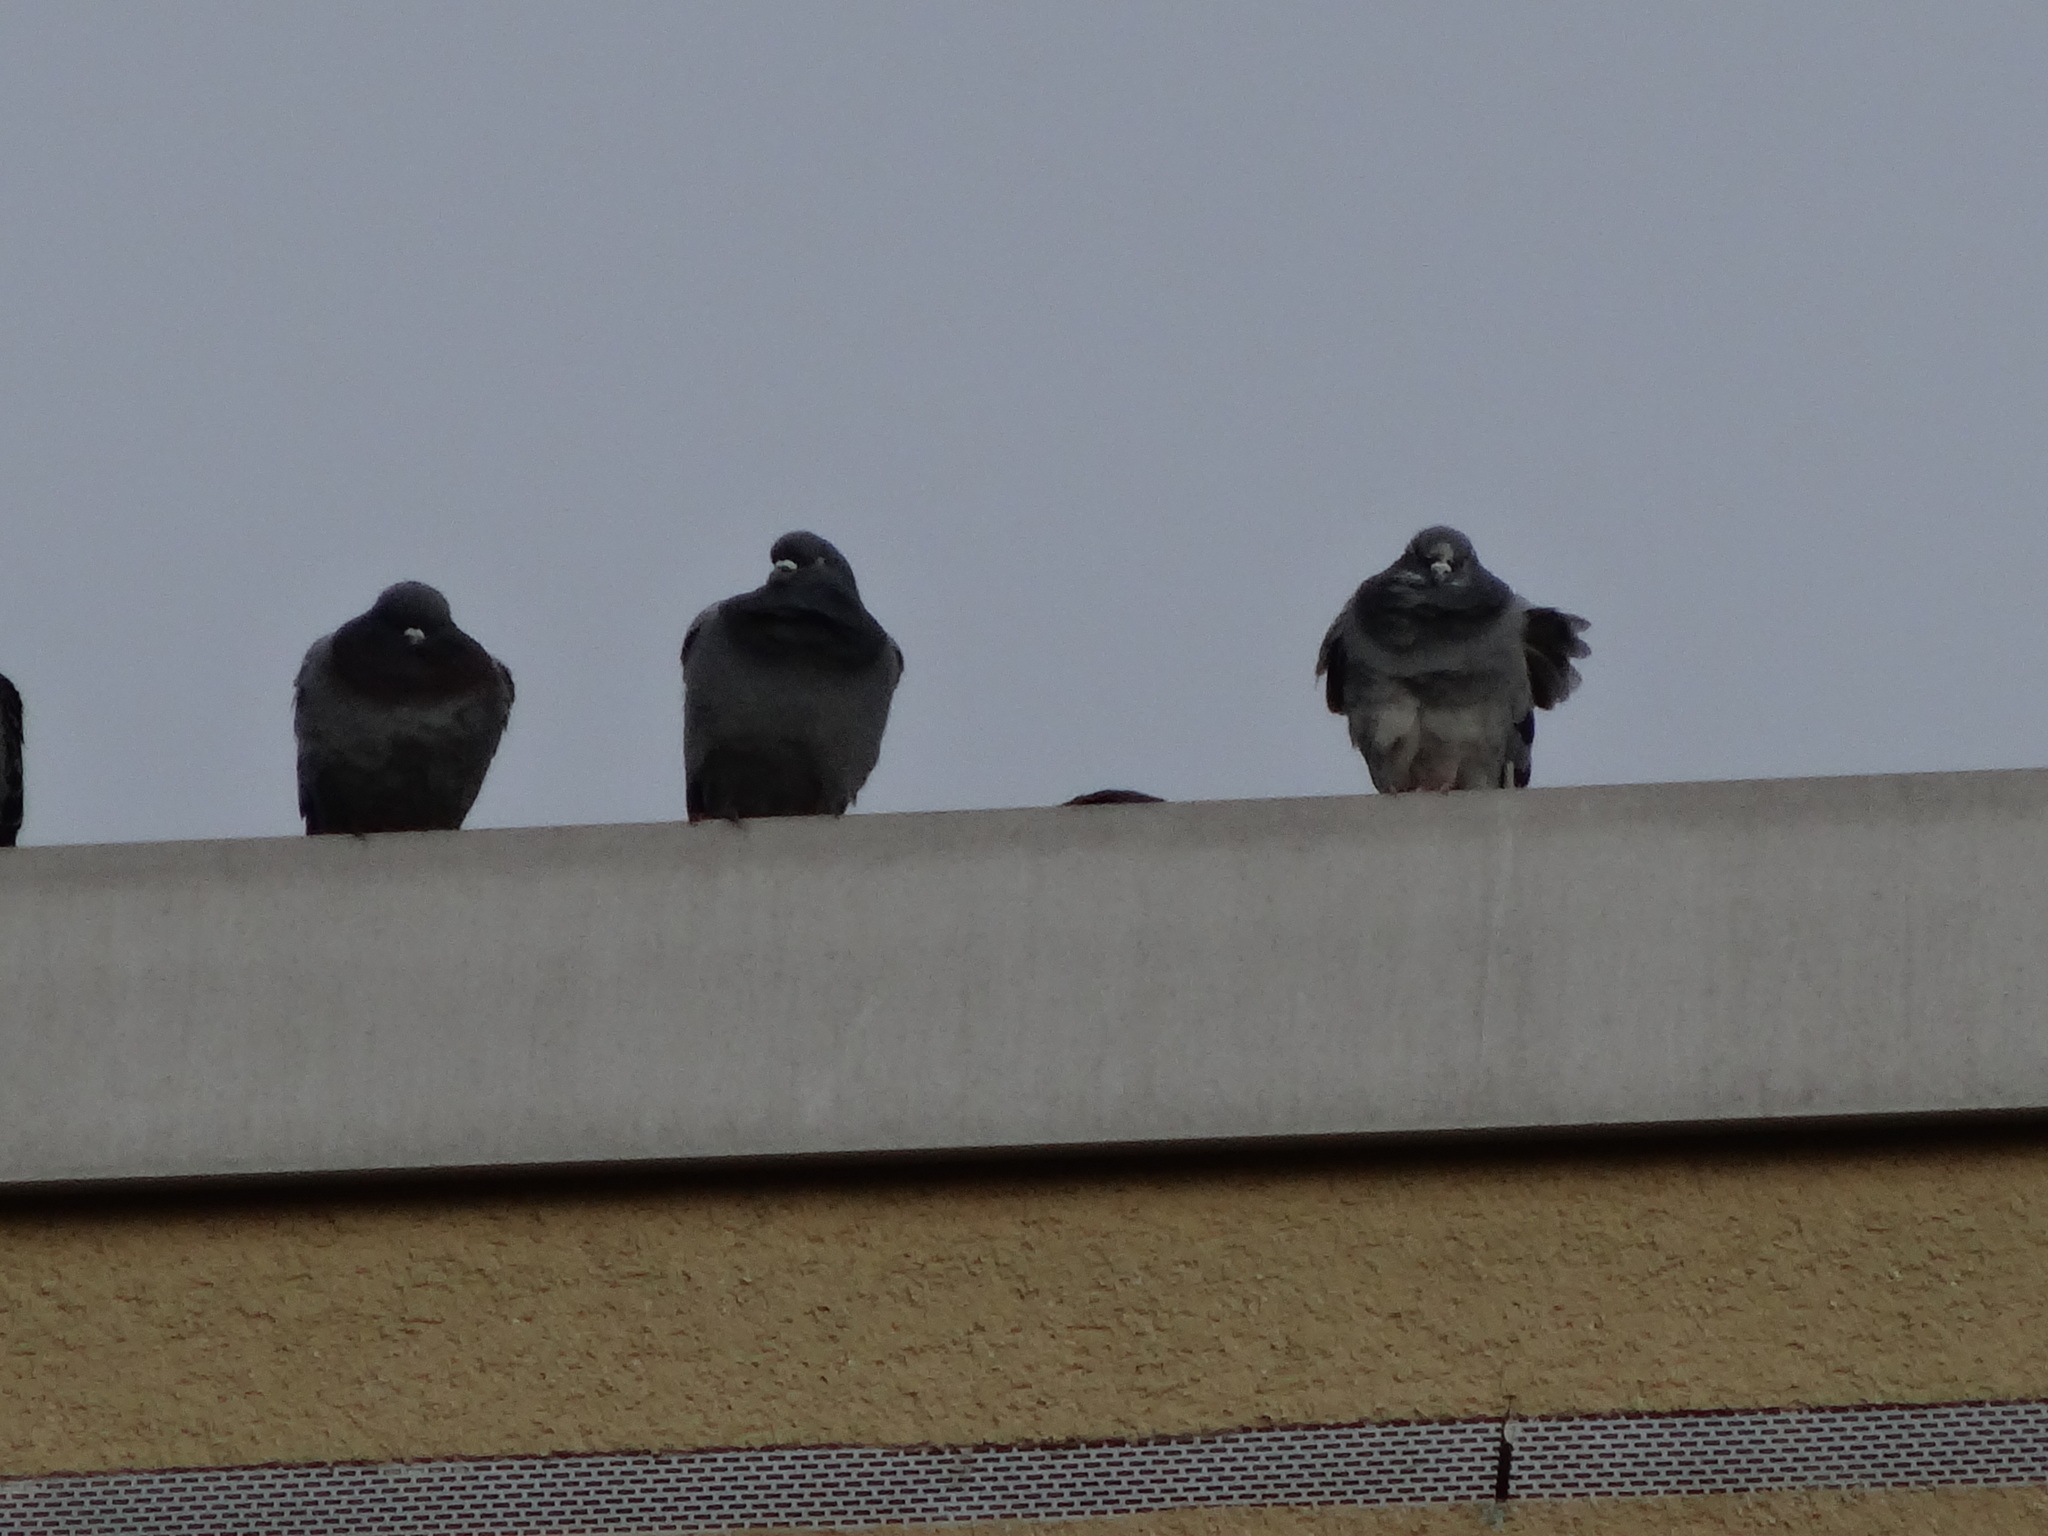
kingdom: Animalia
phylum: Chordata
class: Aves
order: Columbiformes
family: Columbidae
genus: Columba
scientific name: Columba livia
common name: Rock pigeon
